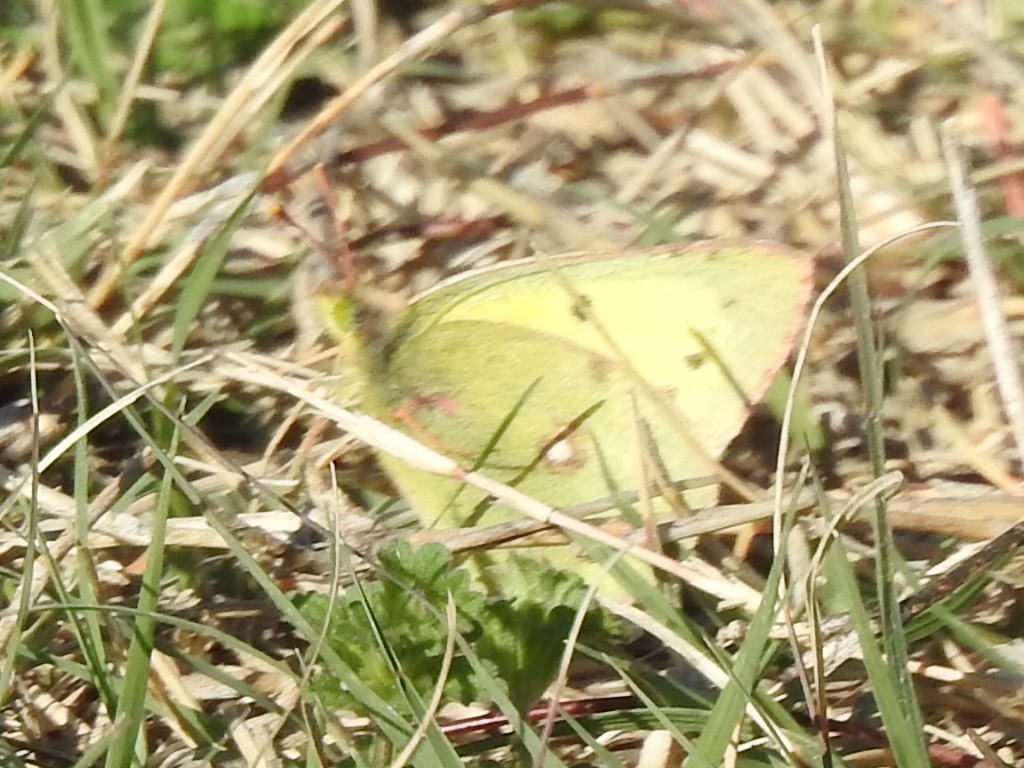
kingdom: Animalia
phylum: Arthropoda
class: Insecta
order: Lepidoptera
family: Pieridae
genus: Colias
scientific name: Colias eurytheme
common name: Alfalfa butterfly
